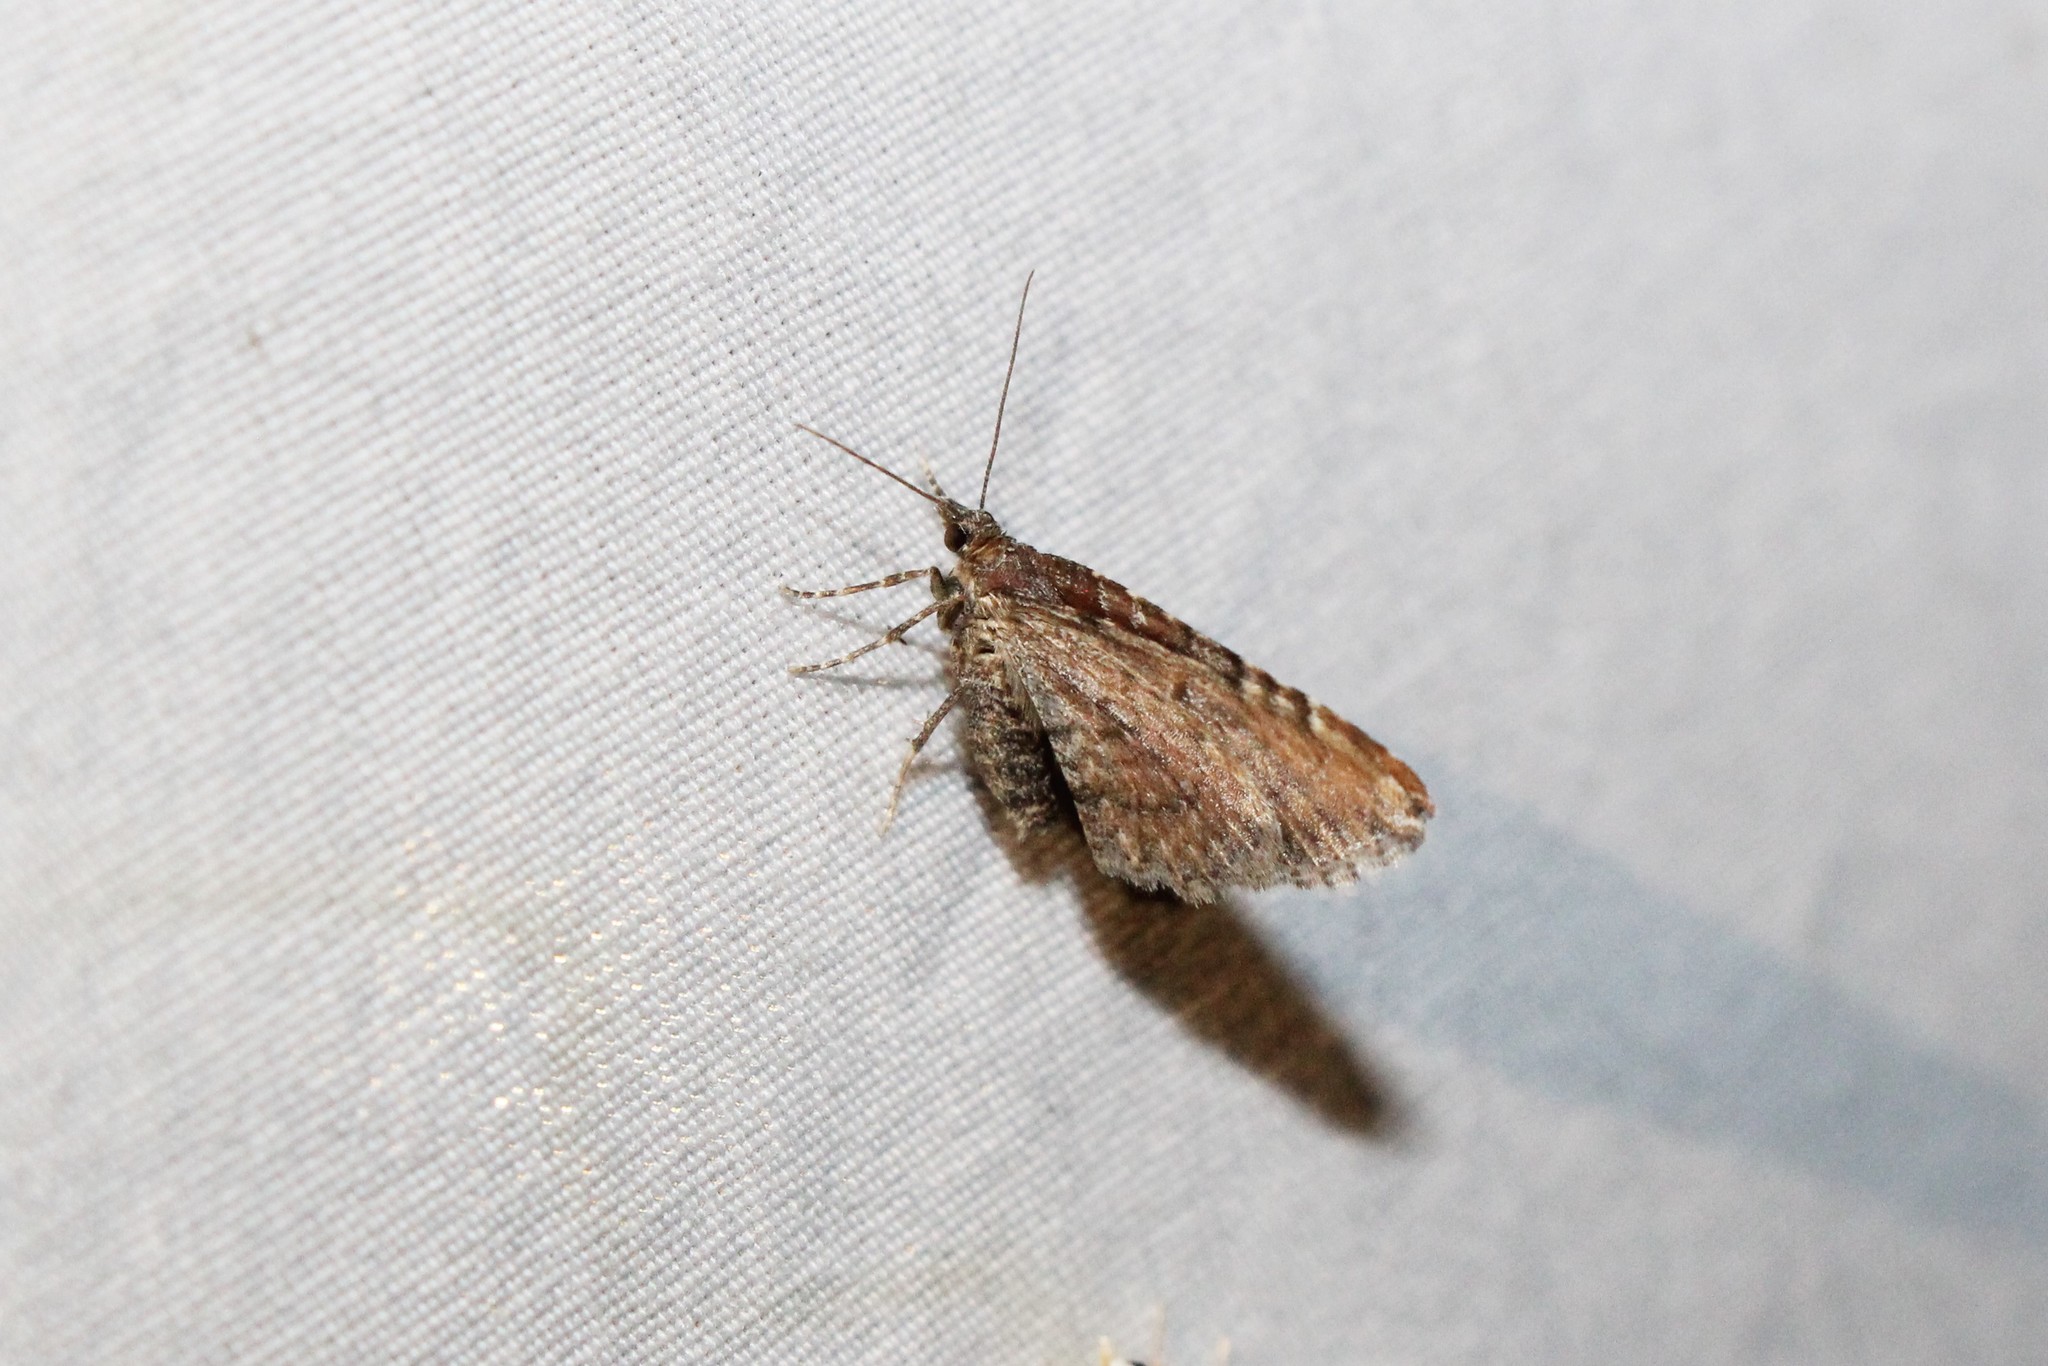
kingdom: Animalia
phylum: Arthropoda
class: Insecta
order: Lepidoptera
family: Geometridae
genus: Orthonama
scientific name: Orthonama obstipata
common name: The gem
